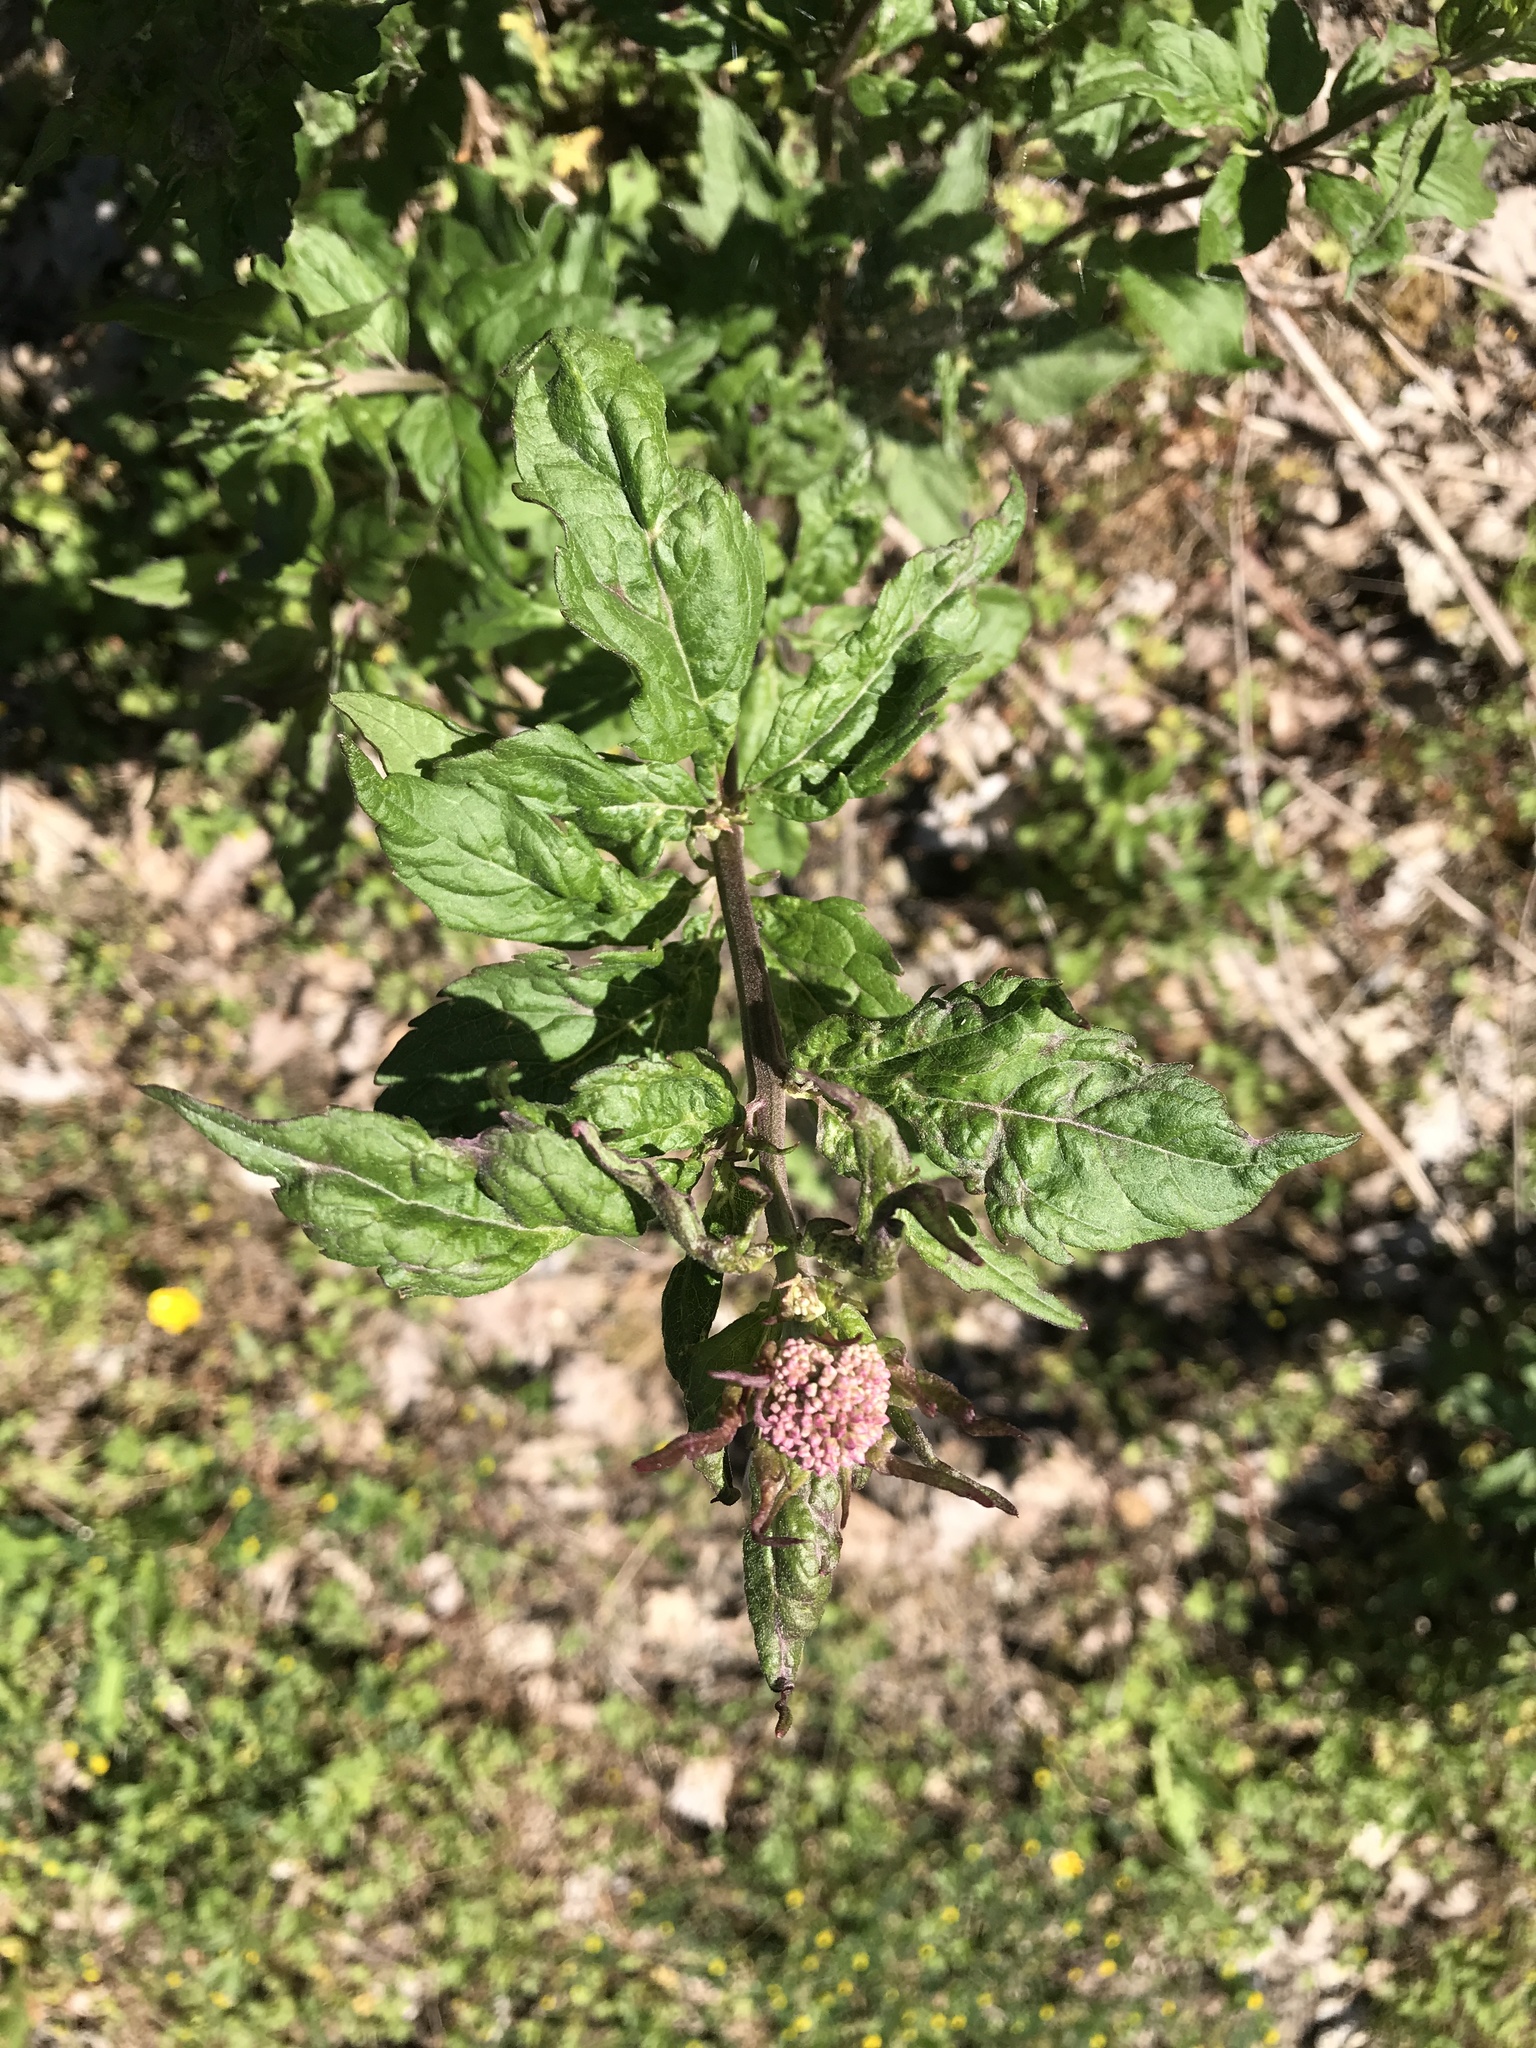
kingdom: Plantae
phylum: Tracheophyta
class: Magnoliopsida
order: Asterales
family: Asteraceae
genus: Eupatorium
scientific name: Eupatorium cannabinum
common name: Hemp-agrimony
